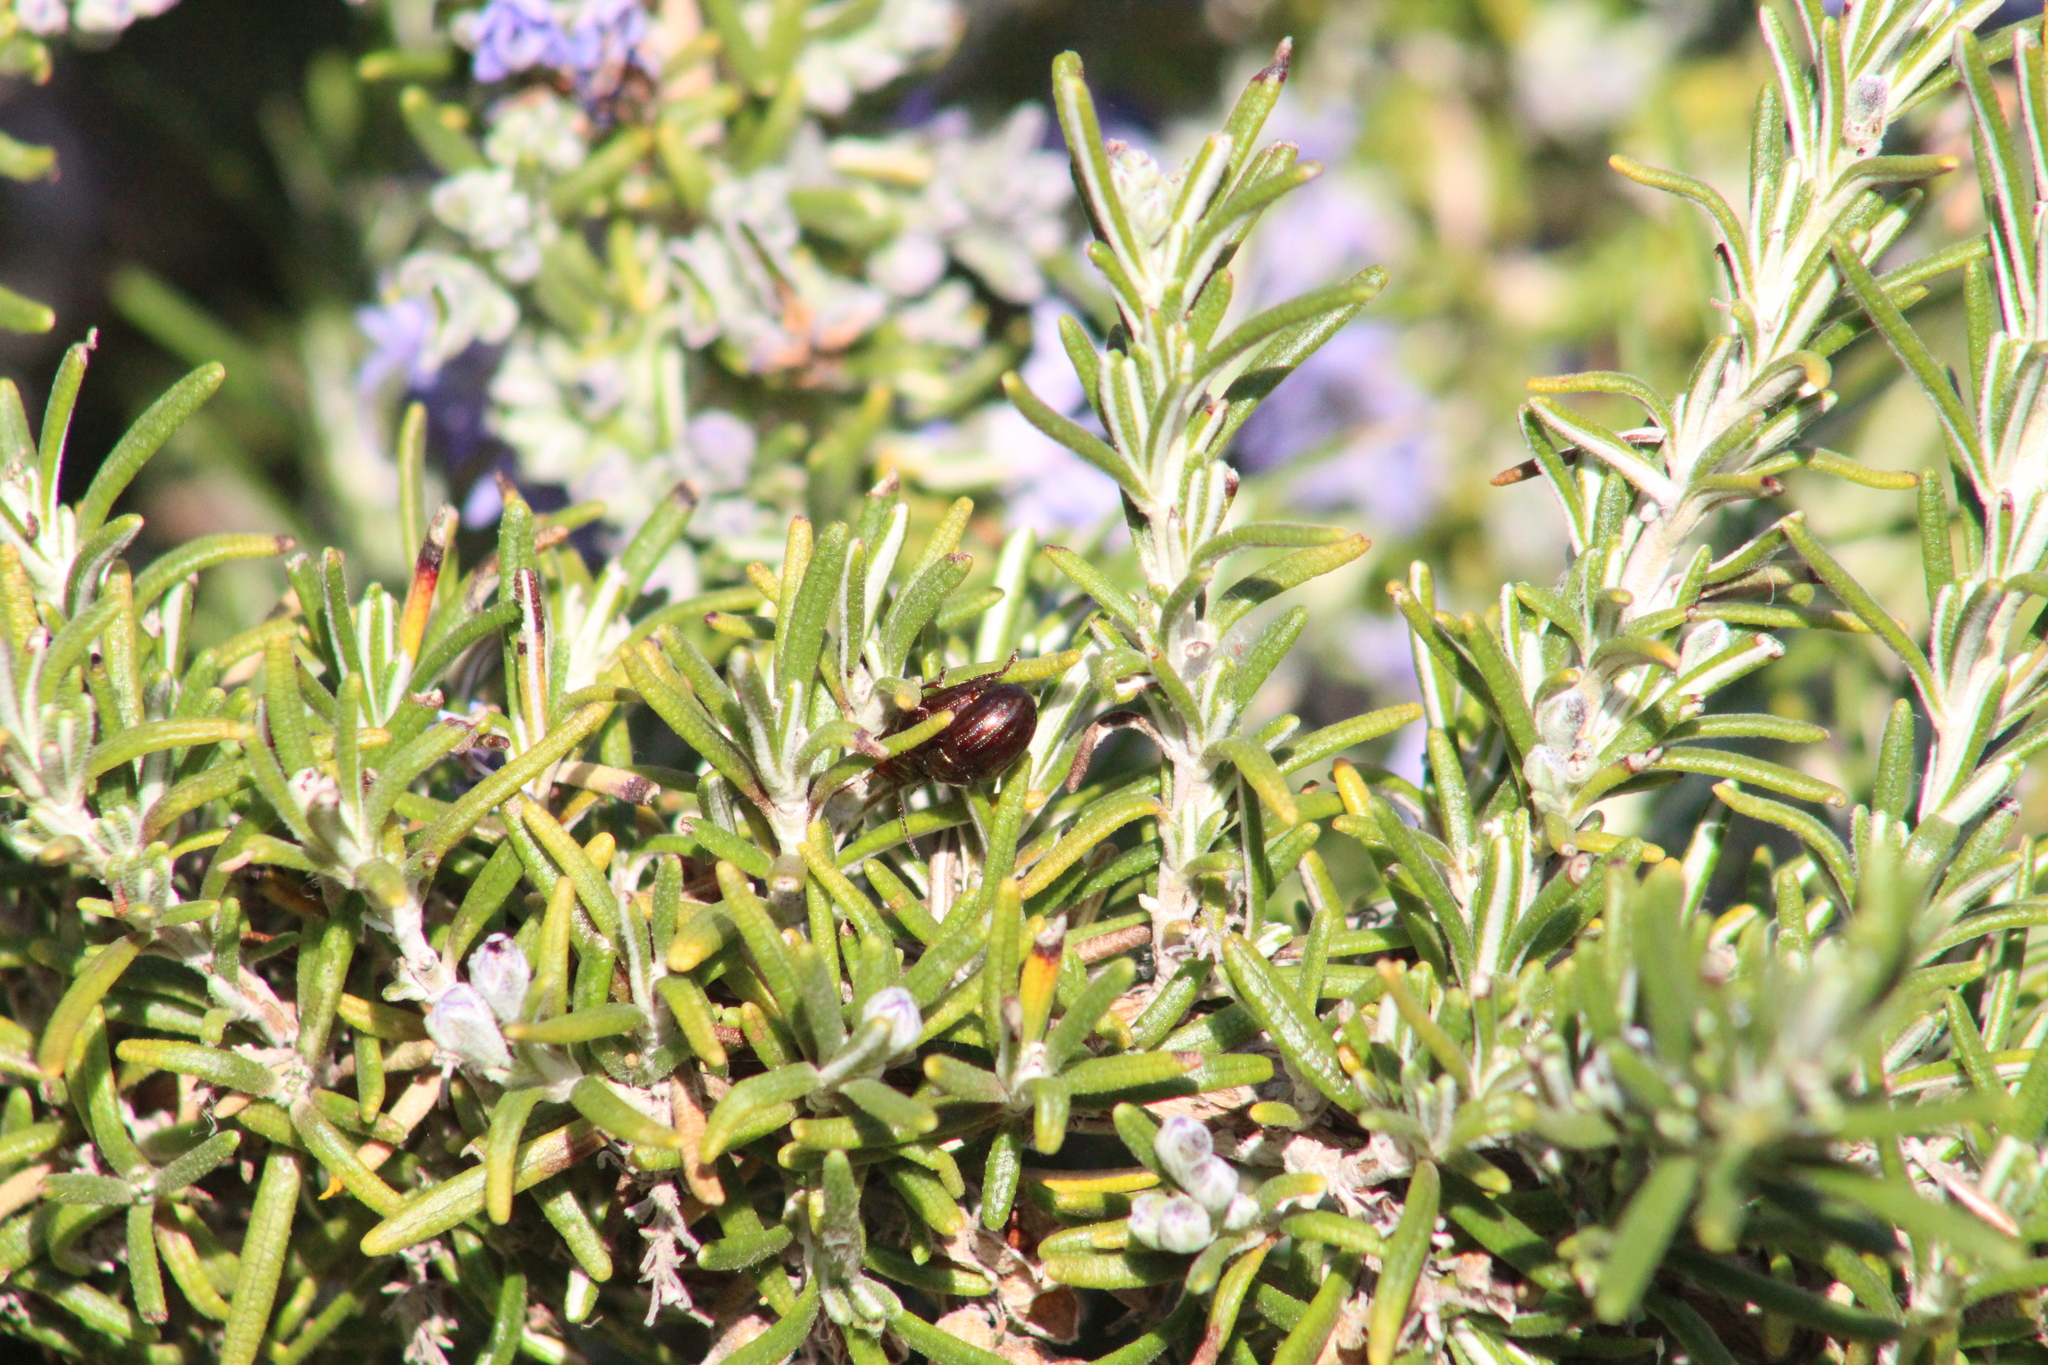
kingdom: Animalia
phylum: Arthropoda
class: Insecta
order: Coleoptera
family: Chrysomelidae
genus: Chrysolina
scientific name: Chrysolina americana
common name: Rosemary beetle
